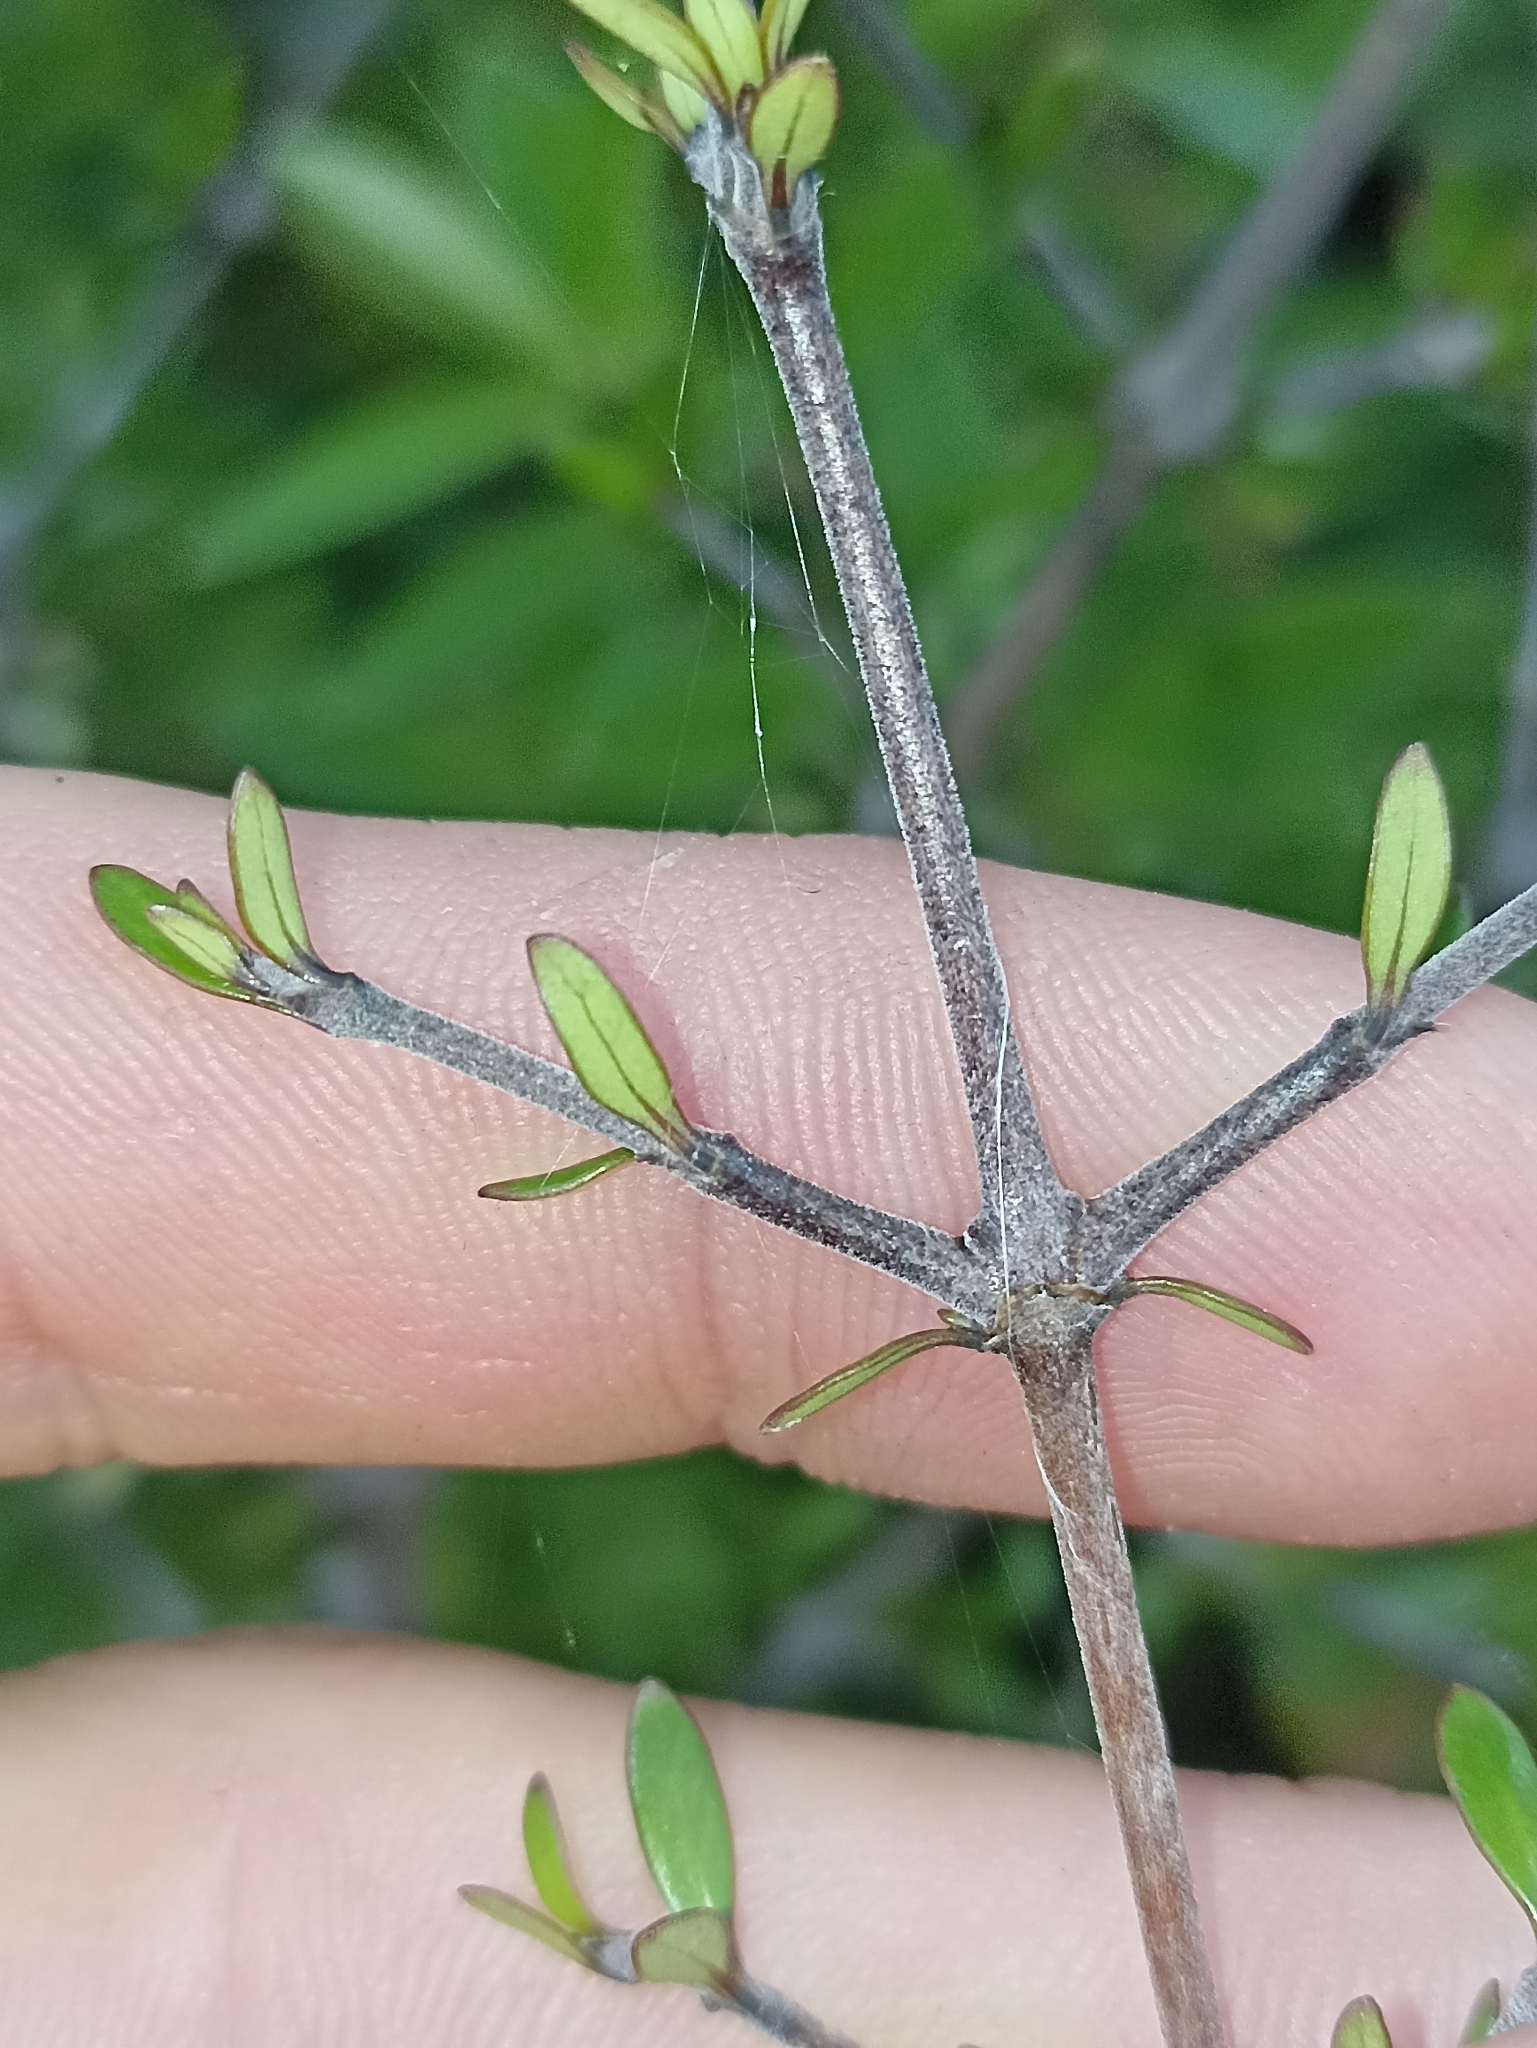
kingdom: Plantae
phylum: Tracheophyta
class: Magnoliopsida
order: Gentianales
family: Rubiaceae
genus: Coprosma
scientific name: Coprosma propinqua
